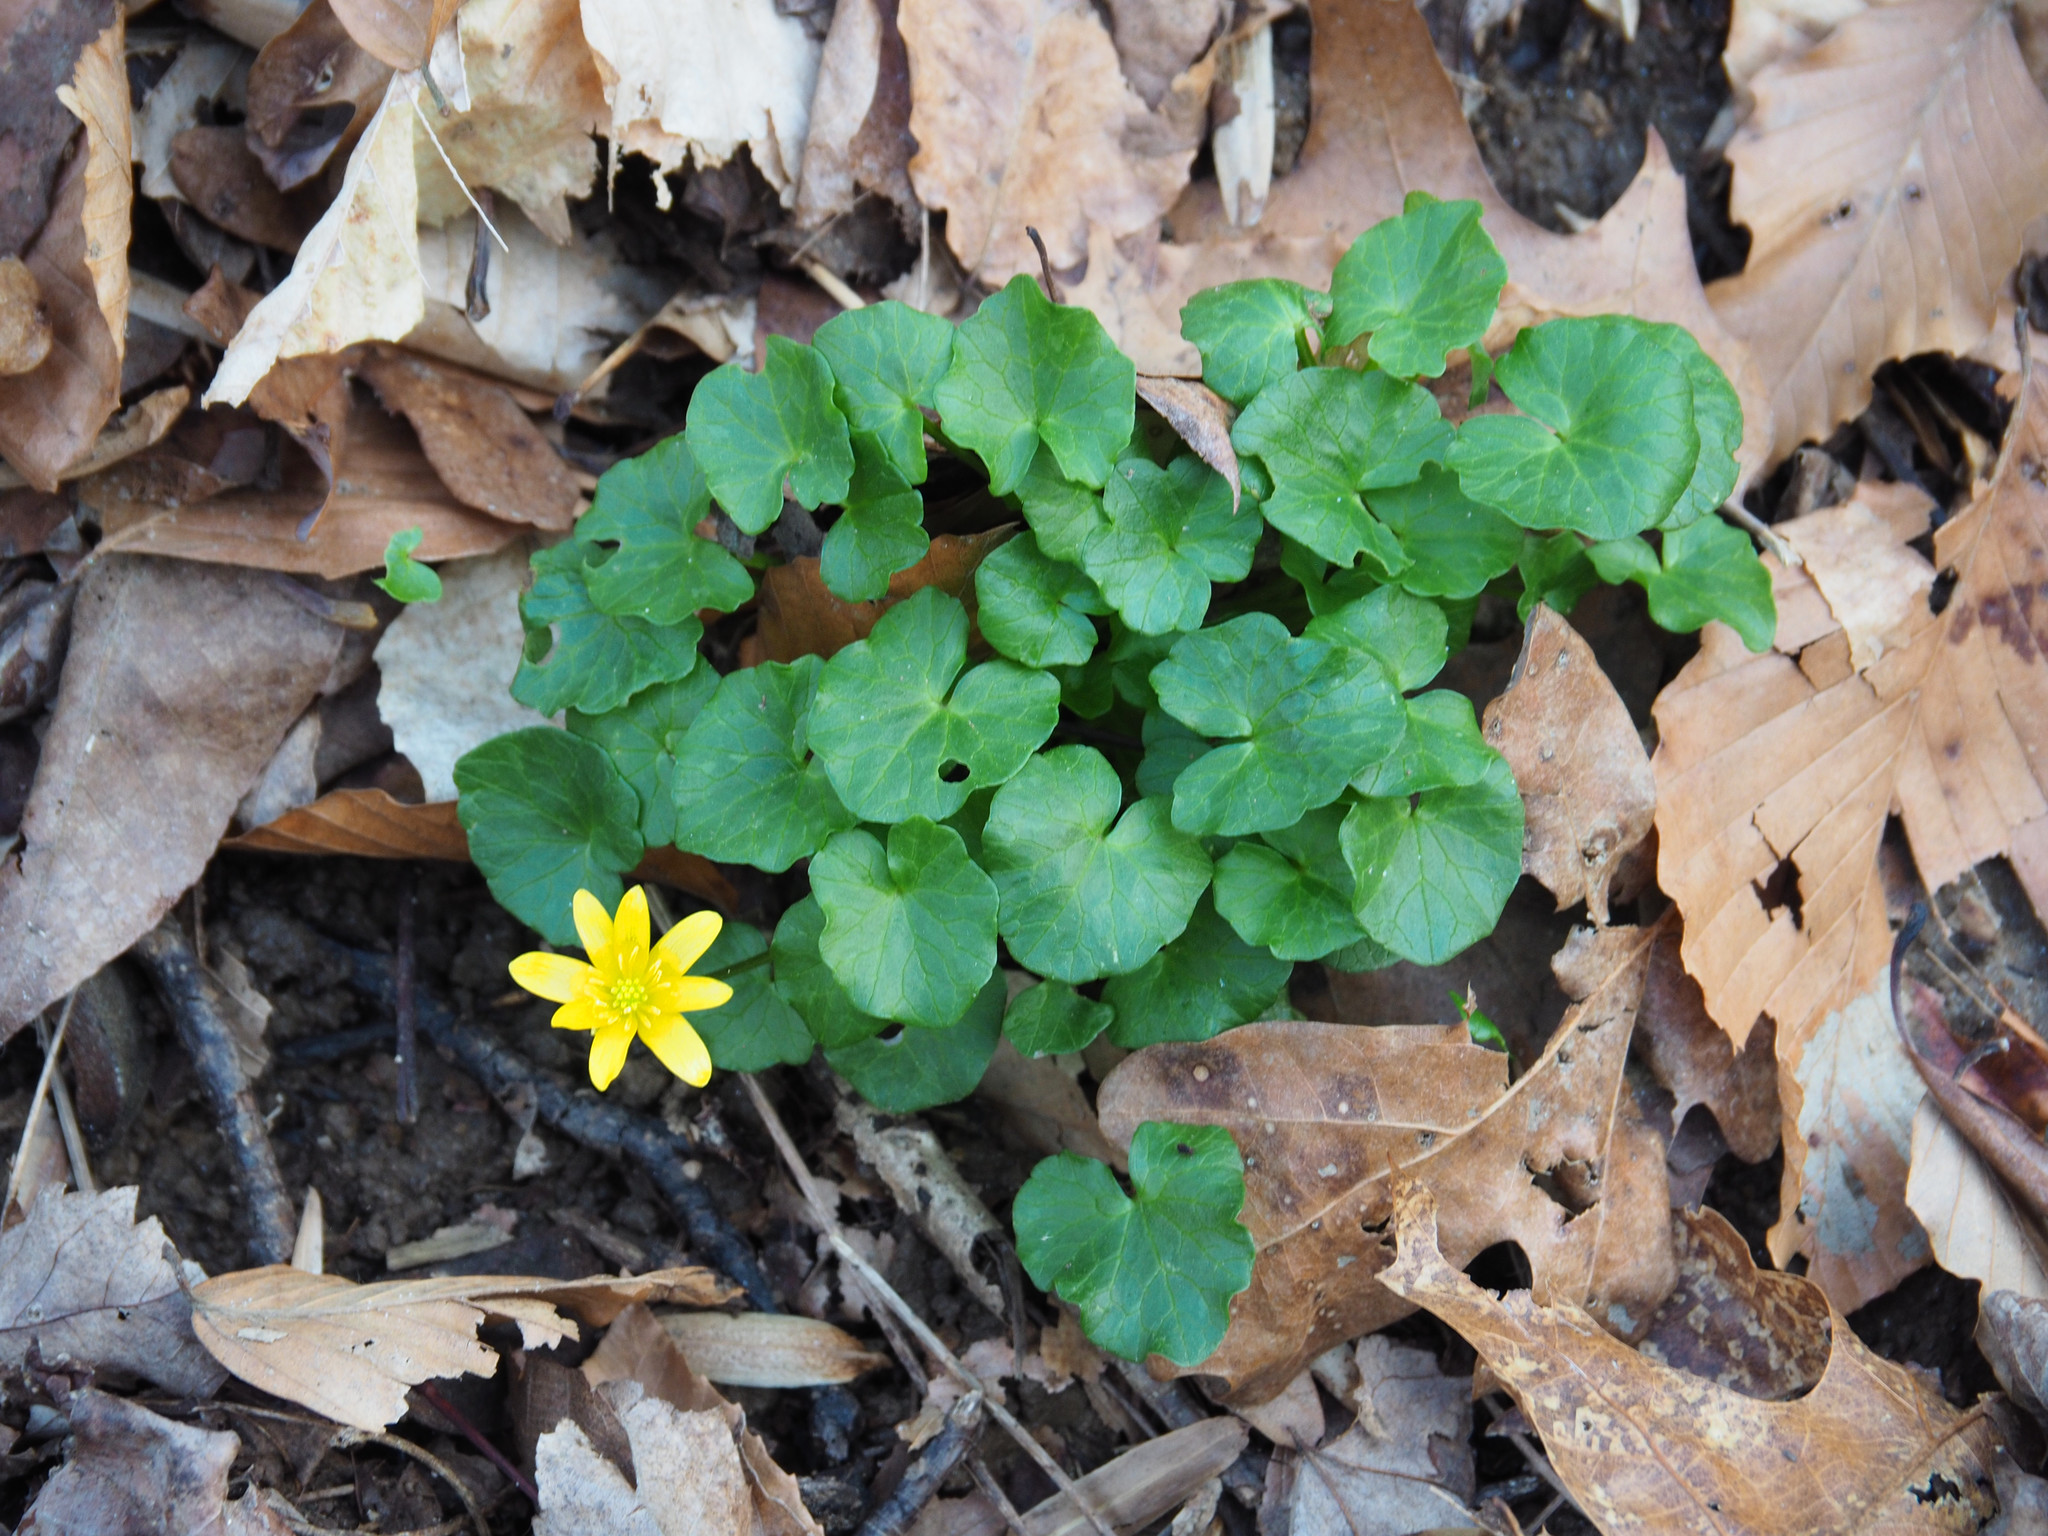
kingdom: Plantae
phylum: Tracheophyta
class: Magnoliopsida
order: Ranunculales
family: Ranunculaceae
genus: Ficaria
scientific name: Ficaria verna
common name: Lesser celandine
